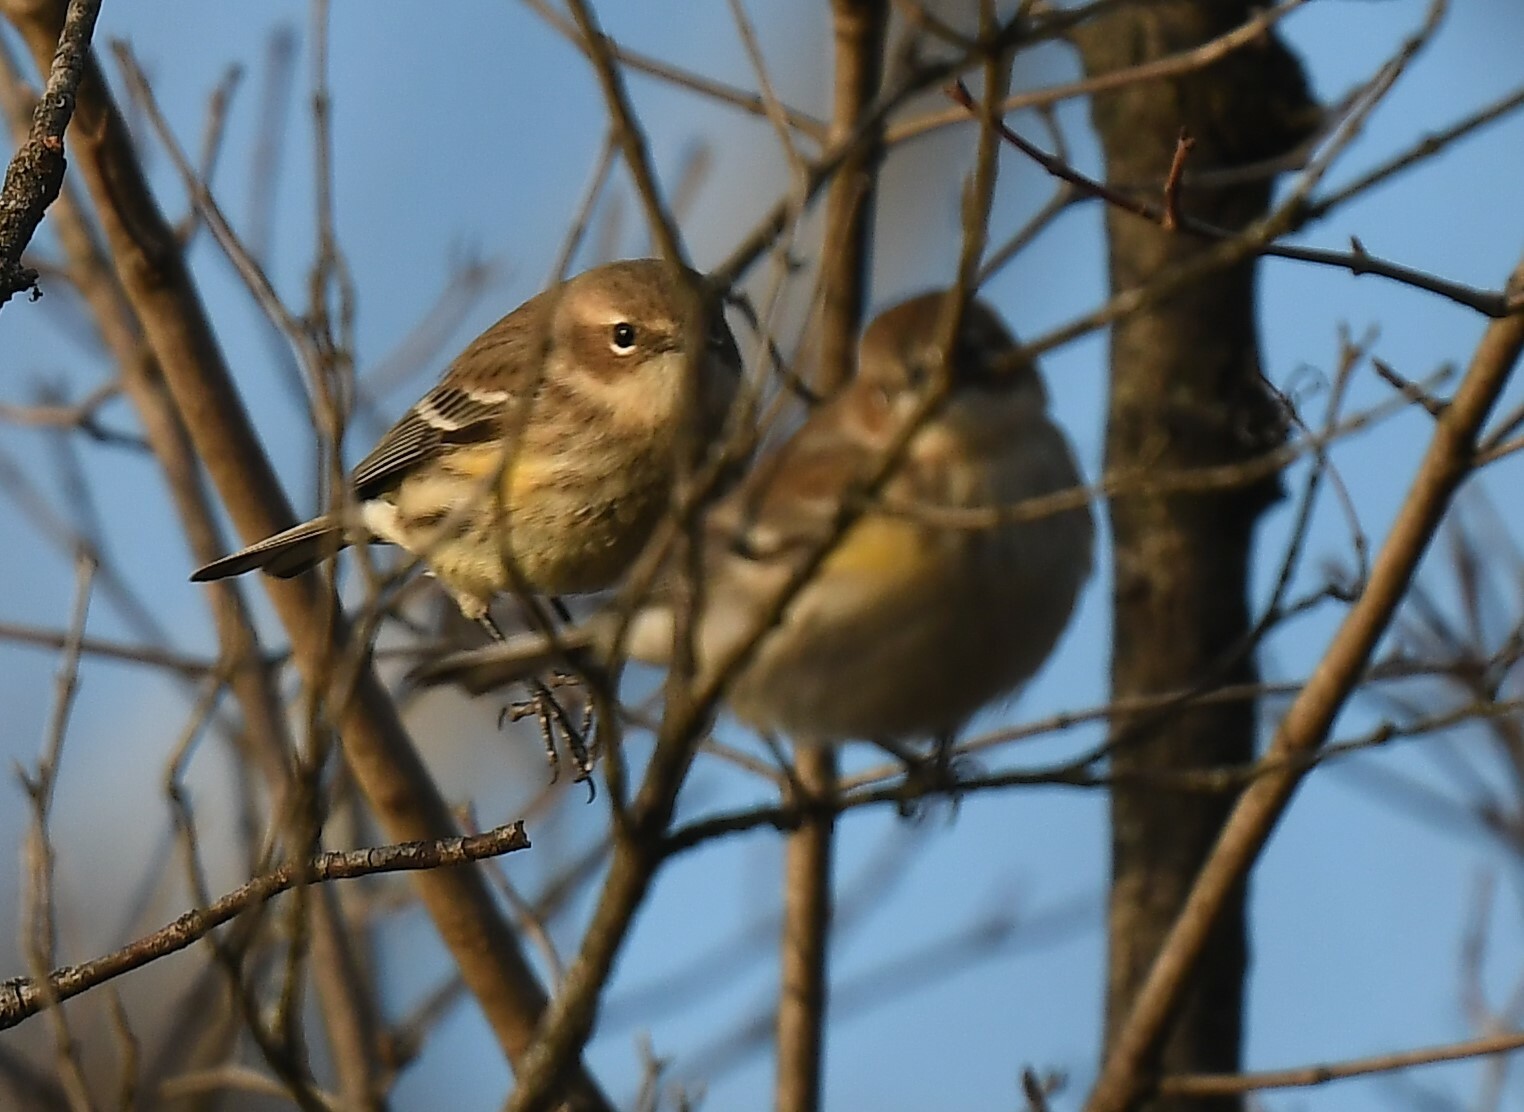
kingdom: Animalia
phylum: Chordata
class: Aves
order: Passeriformes
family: Parulidae
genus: Setophaga
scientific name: Setophaga coronata
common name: Myrtle warbler
